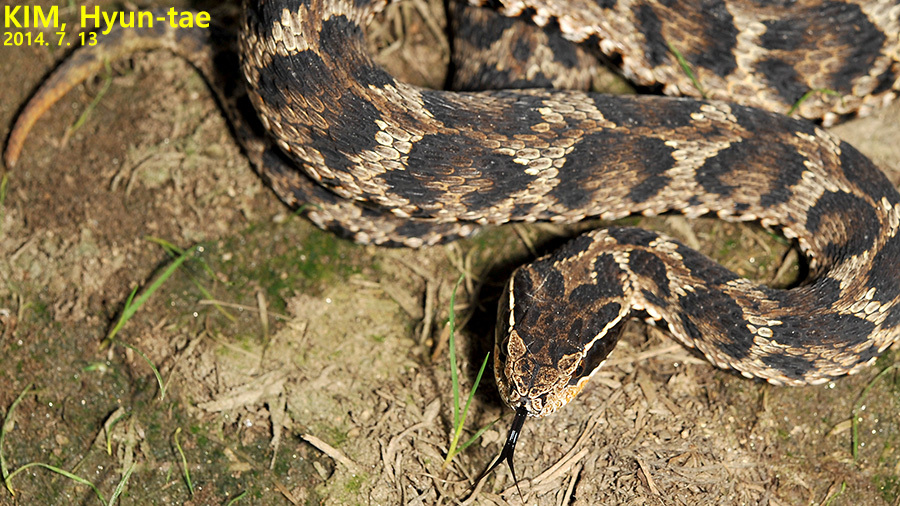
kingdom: Animalia
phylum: Chordata
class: Squamata
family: Viperidae
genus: Gloydius
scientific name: Gloydius brevicauda
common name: Short-tailed mamushi
